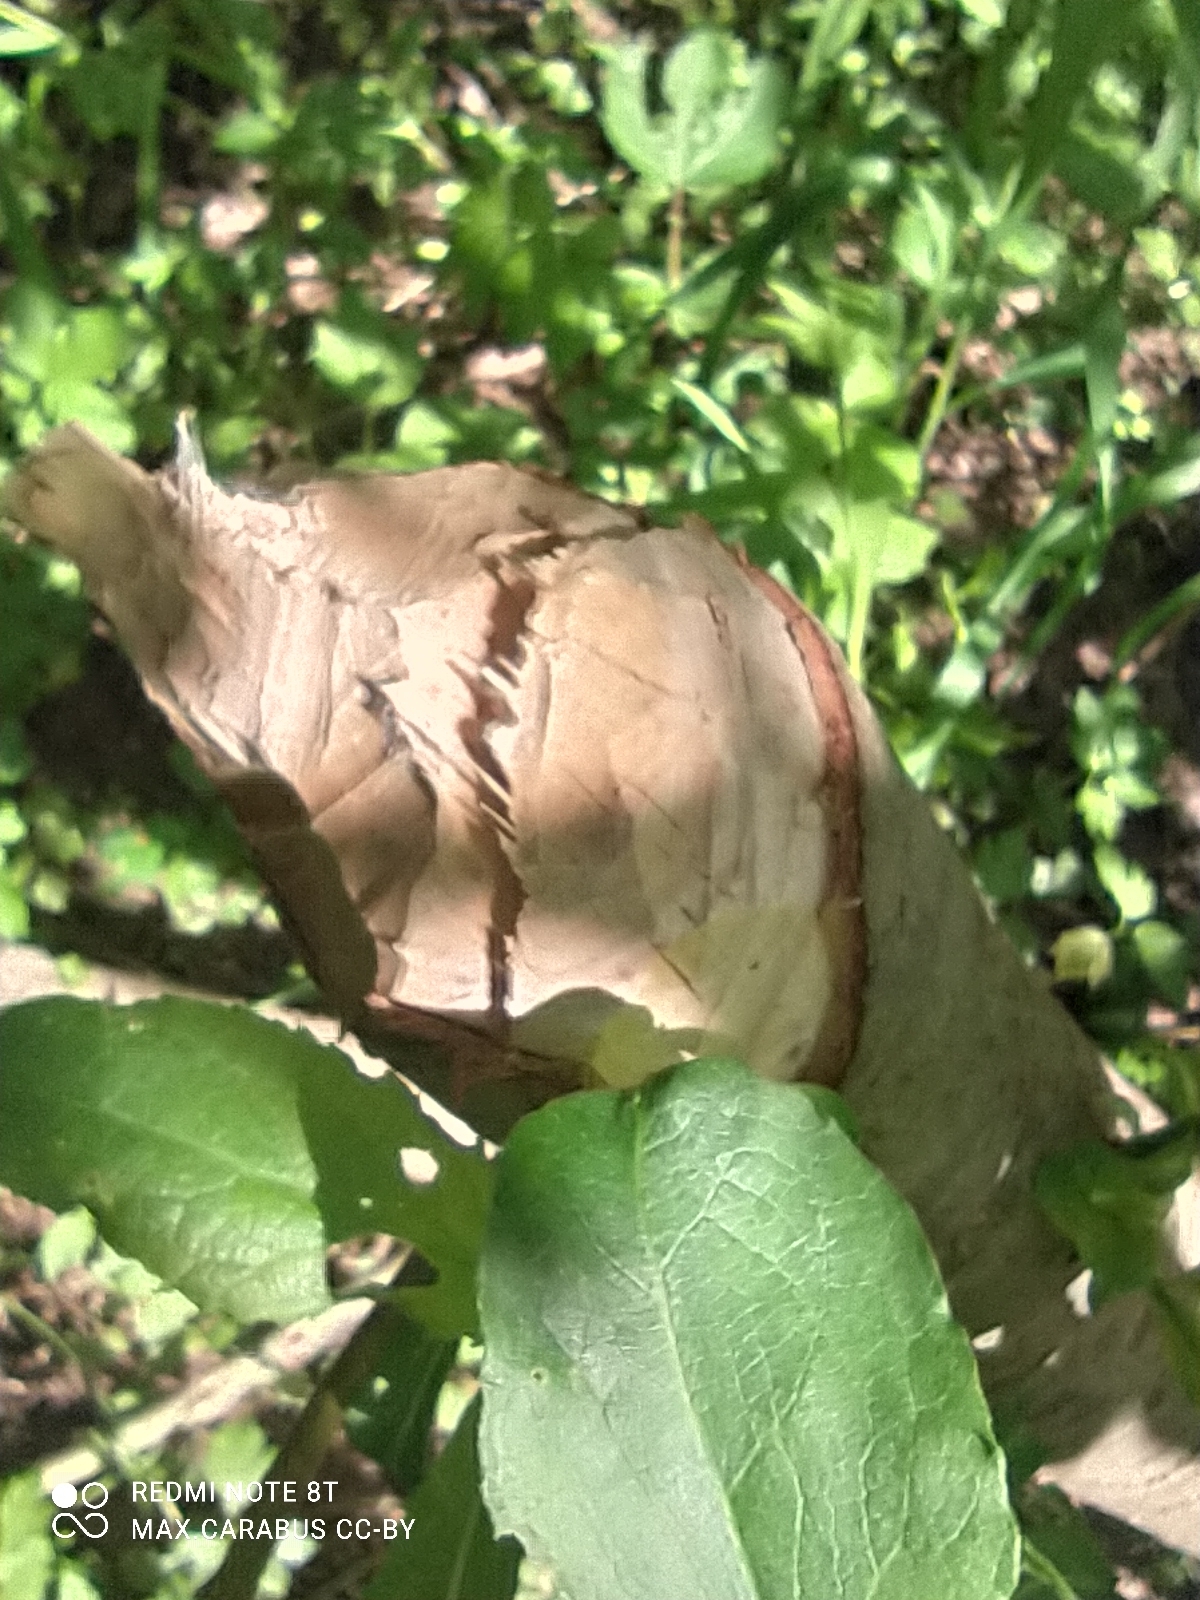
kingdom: Animalia
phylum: Chordata
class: Mammalia
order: Rodentia
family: Castoridae
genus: Castor
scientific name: Castor fiber
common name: Eurasian beaver
